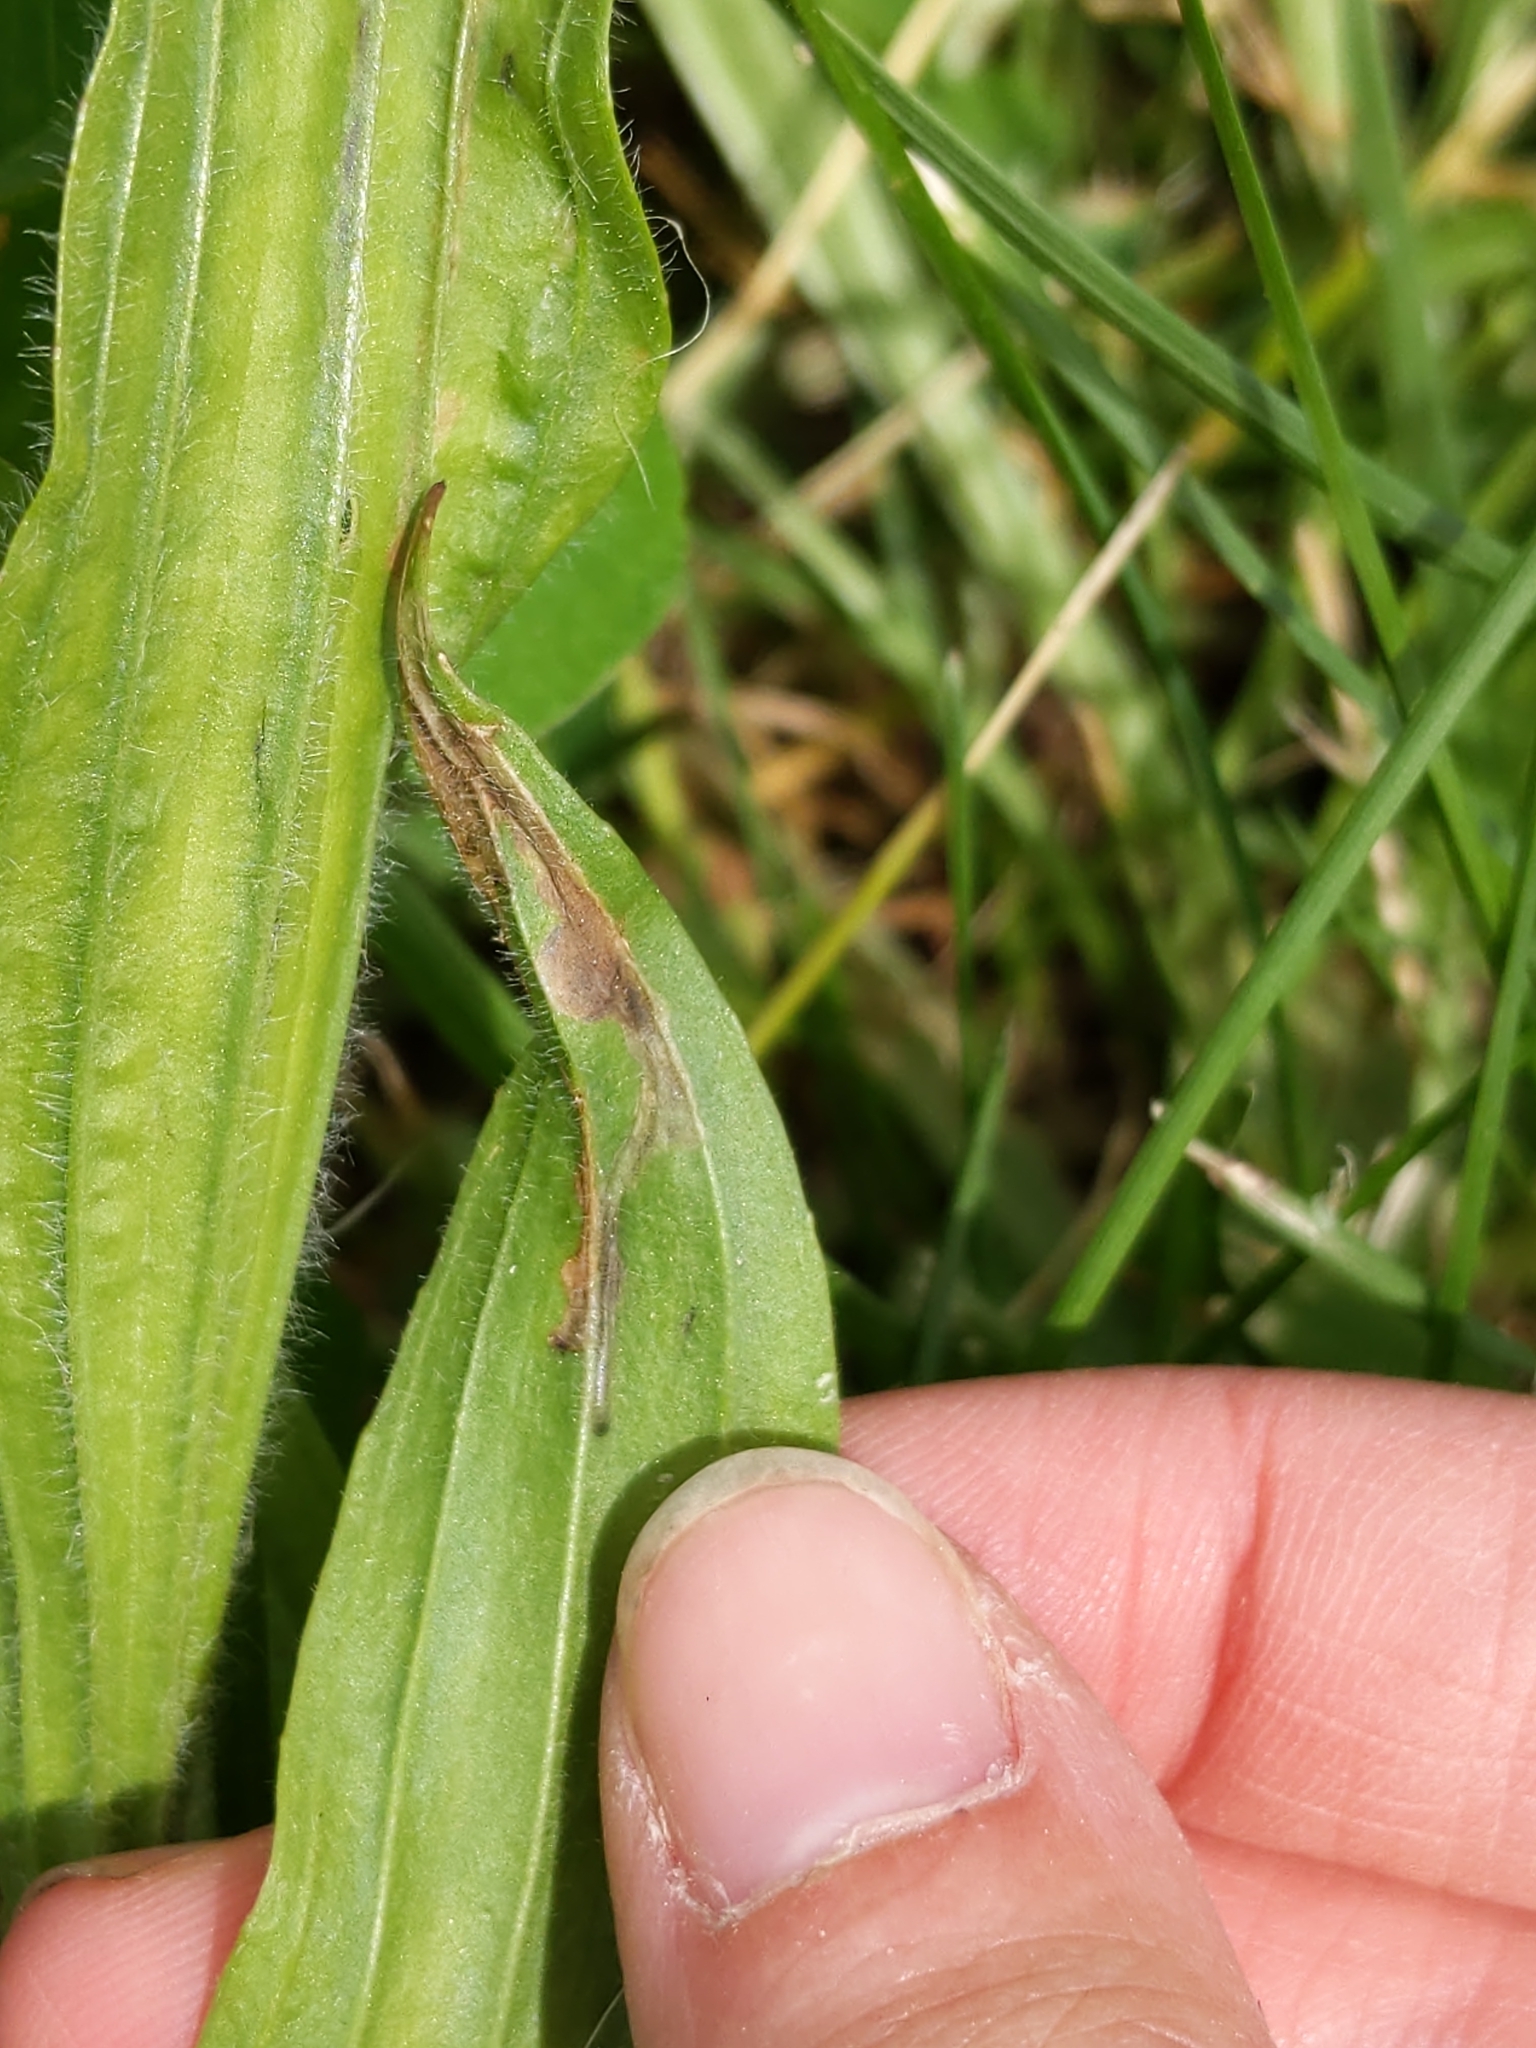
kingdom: Animalia
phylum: Arthropoda
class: Insecta
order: Coleoptera
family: Chrysomelidae
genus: Dibolia
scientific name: Dibolia borealis
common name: Northern plantain flea beetle
